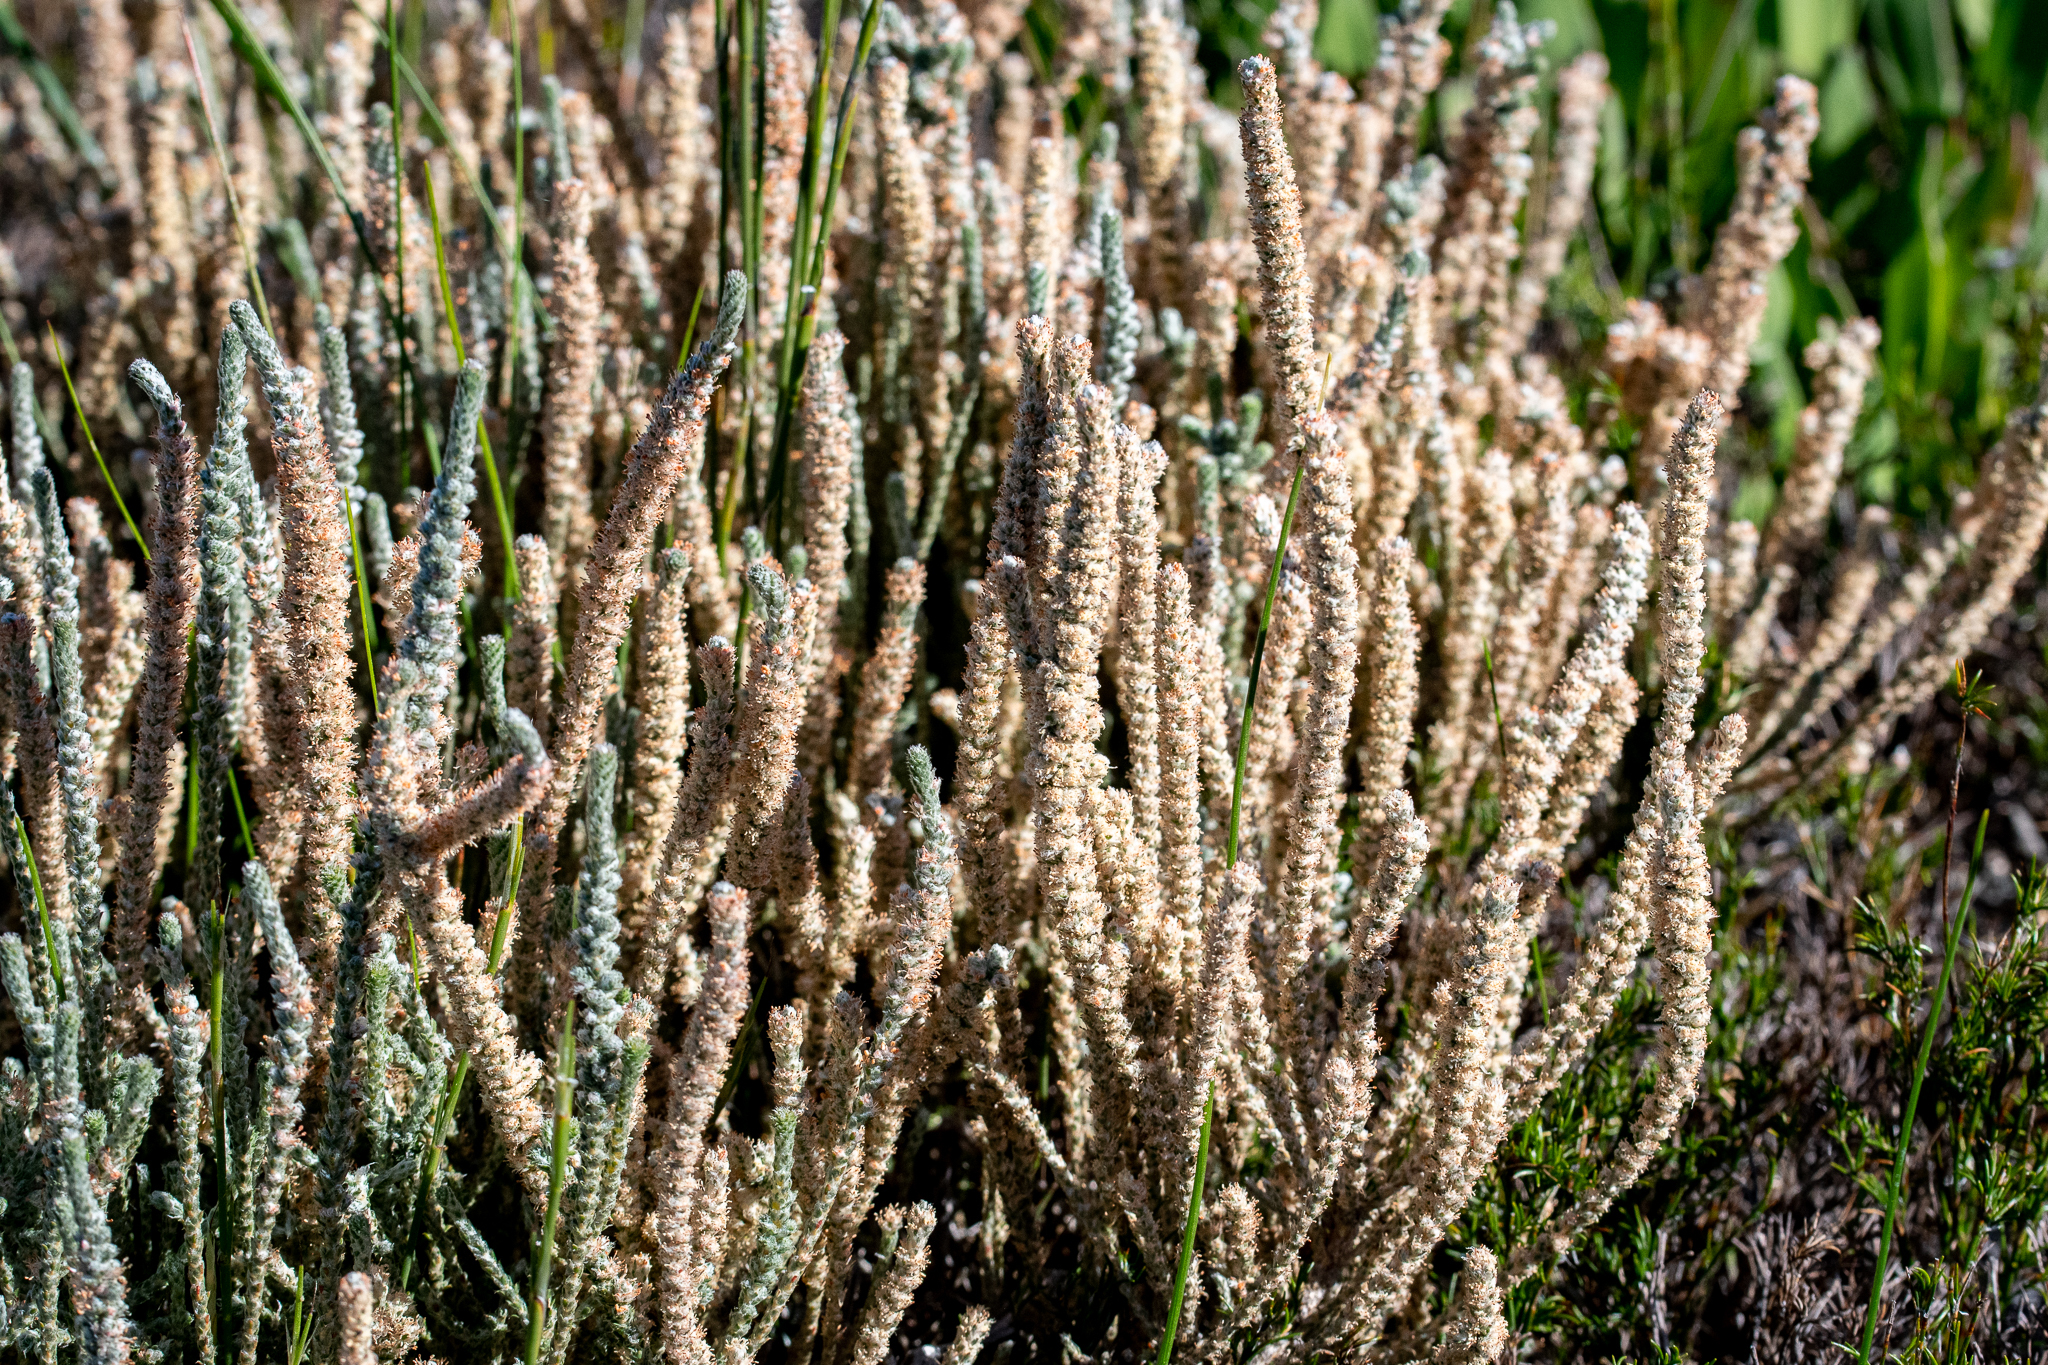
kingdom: Plantae
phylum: Tracheophyta
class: Magnoliopsida
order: Caryophyllales
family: Molluginaceae
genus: Polpoda
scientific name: Polpoda capensis
